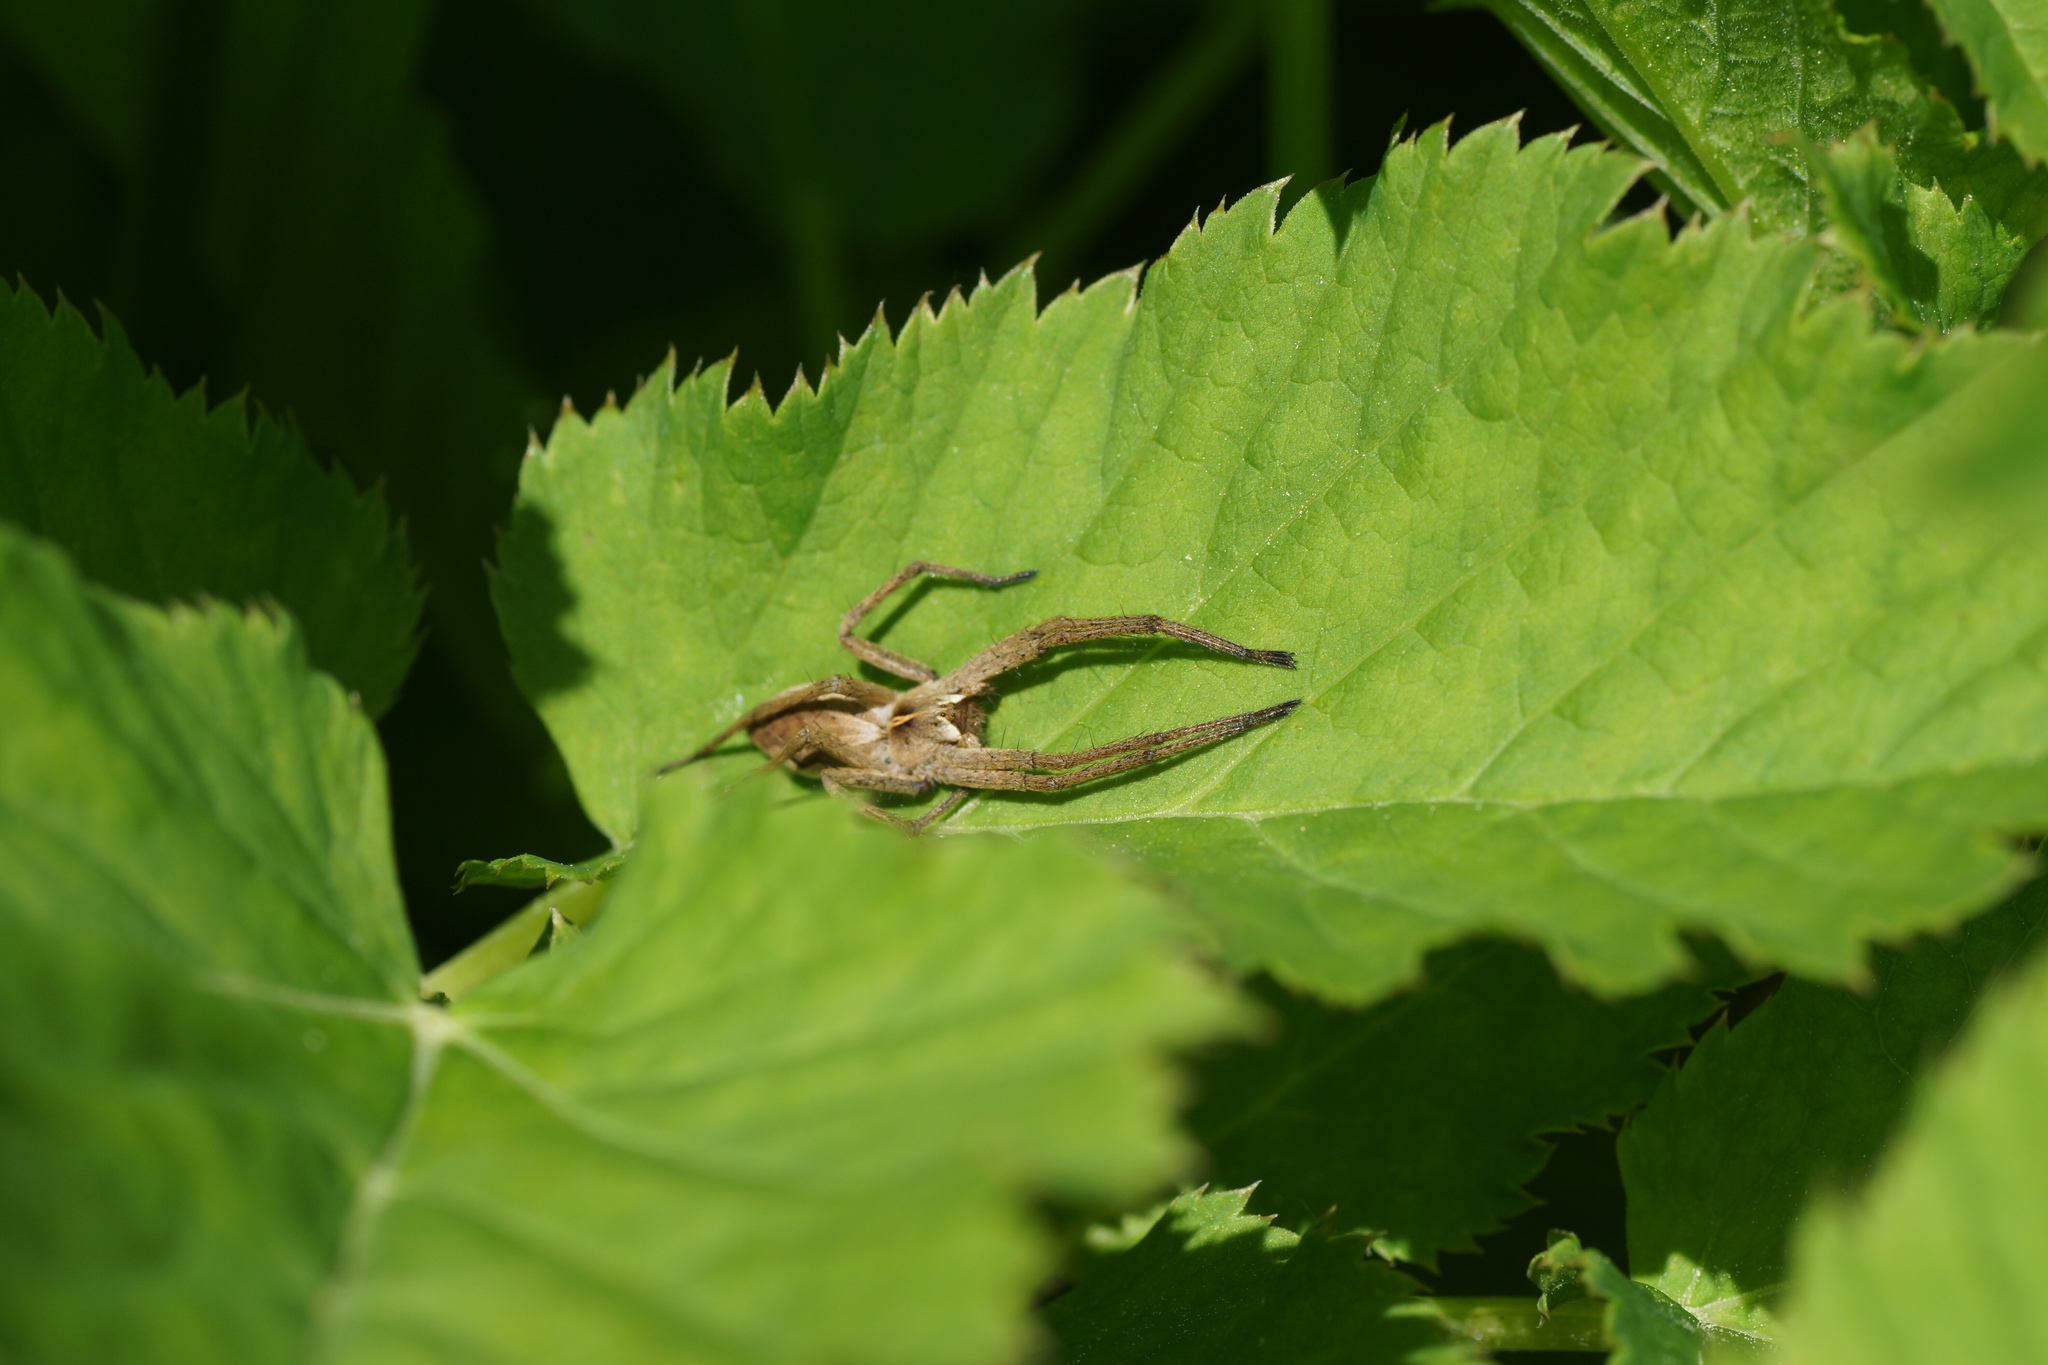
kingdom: Animalia
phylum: Arthropoda
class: Arachnida
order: Araneae
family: Pisauridae
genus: Pisaura
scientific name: Pisaura mirabilis
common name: Tent spider
